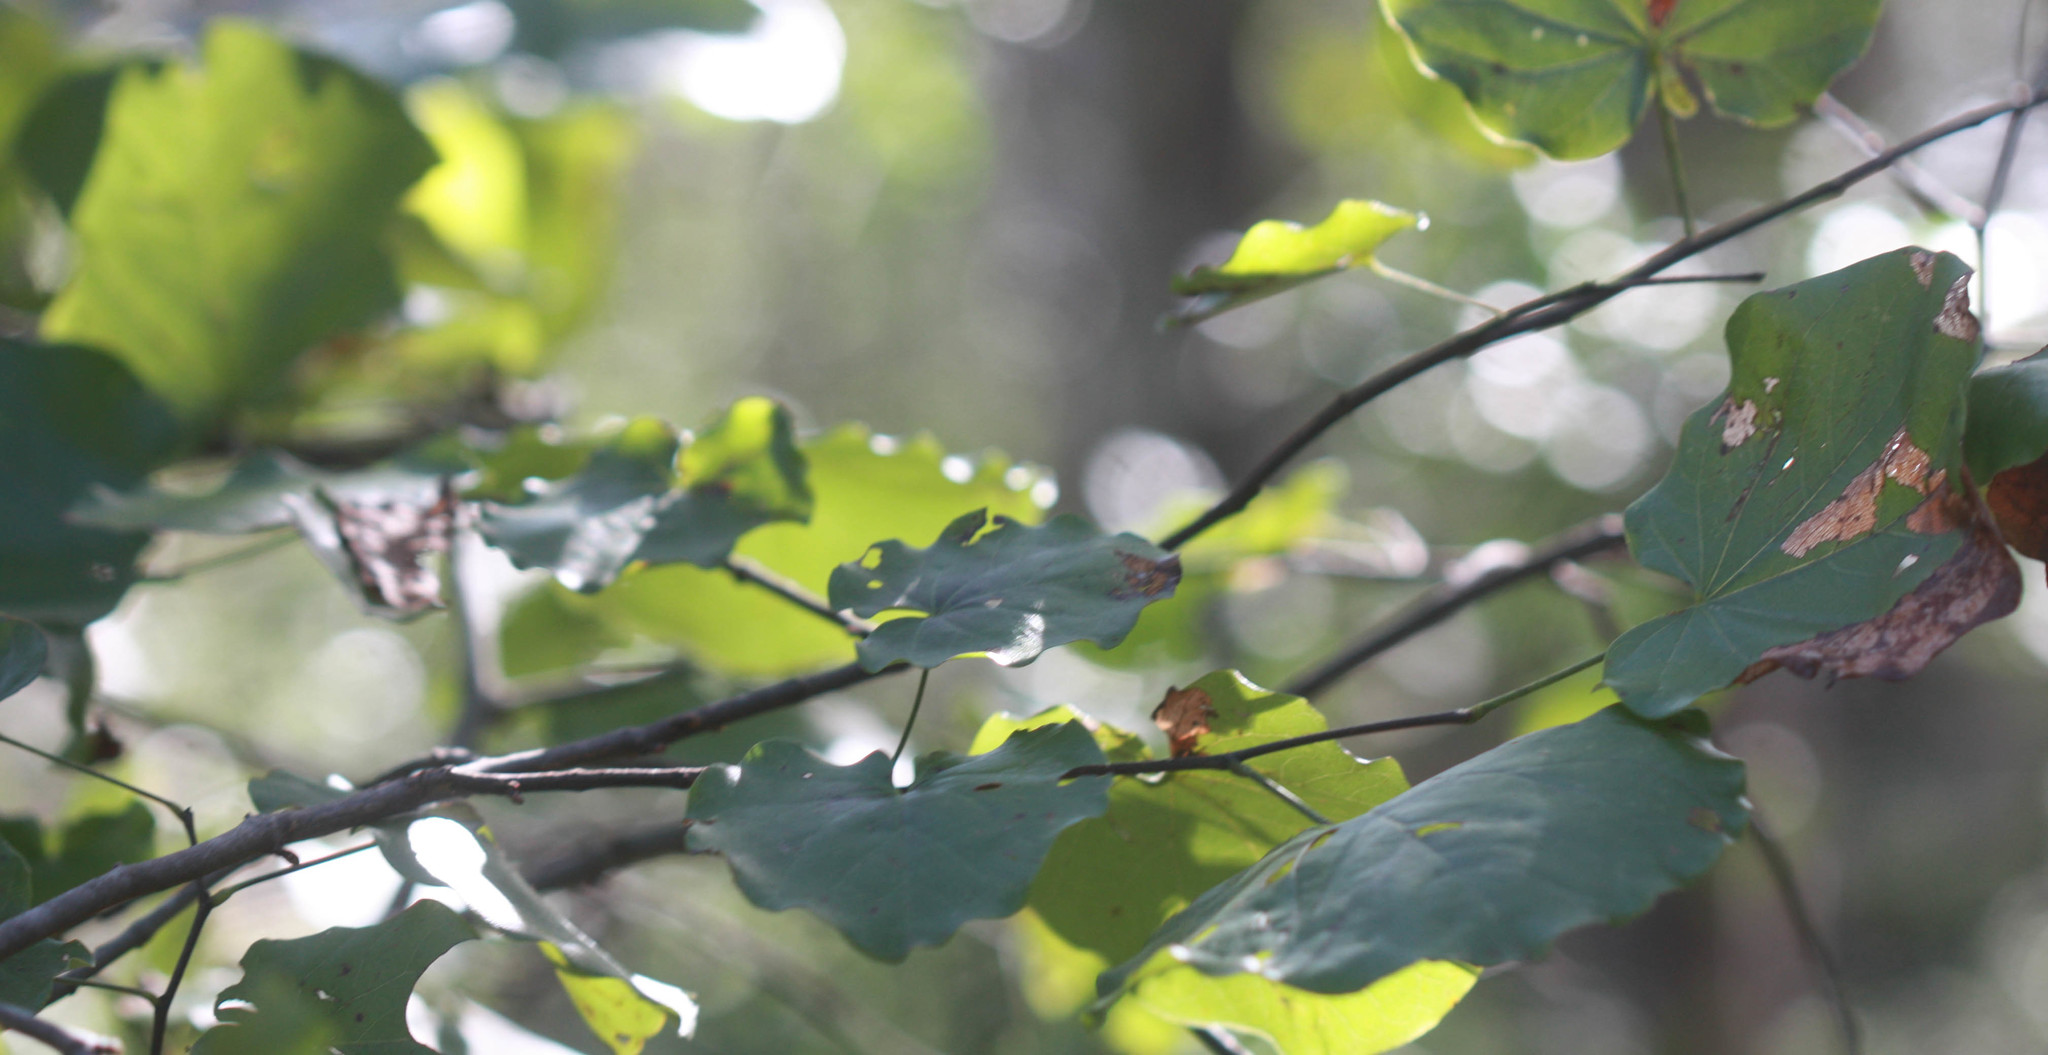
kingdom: Plantae
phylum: Tracheophyta
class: Magnoliopsida
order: Fabales
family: Fabaceae
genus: Cercis
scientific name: Cercis canadensis
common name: Eastern redbud
